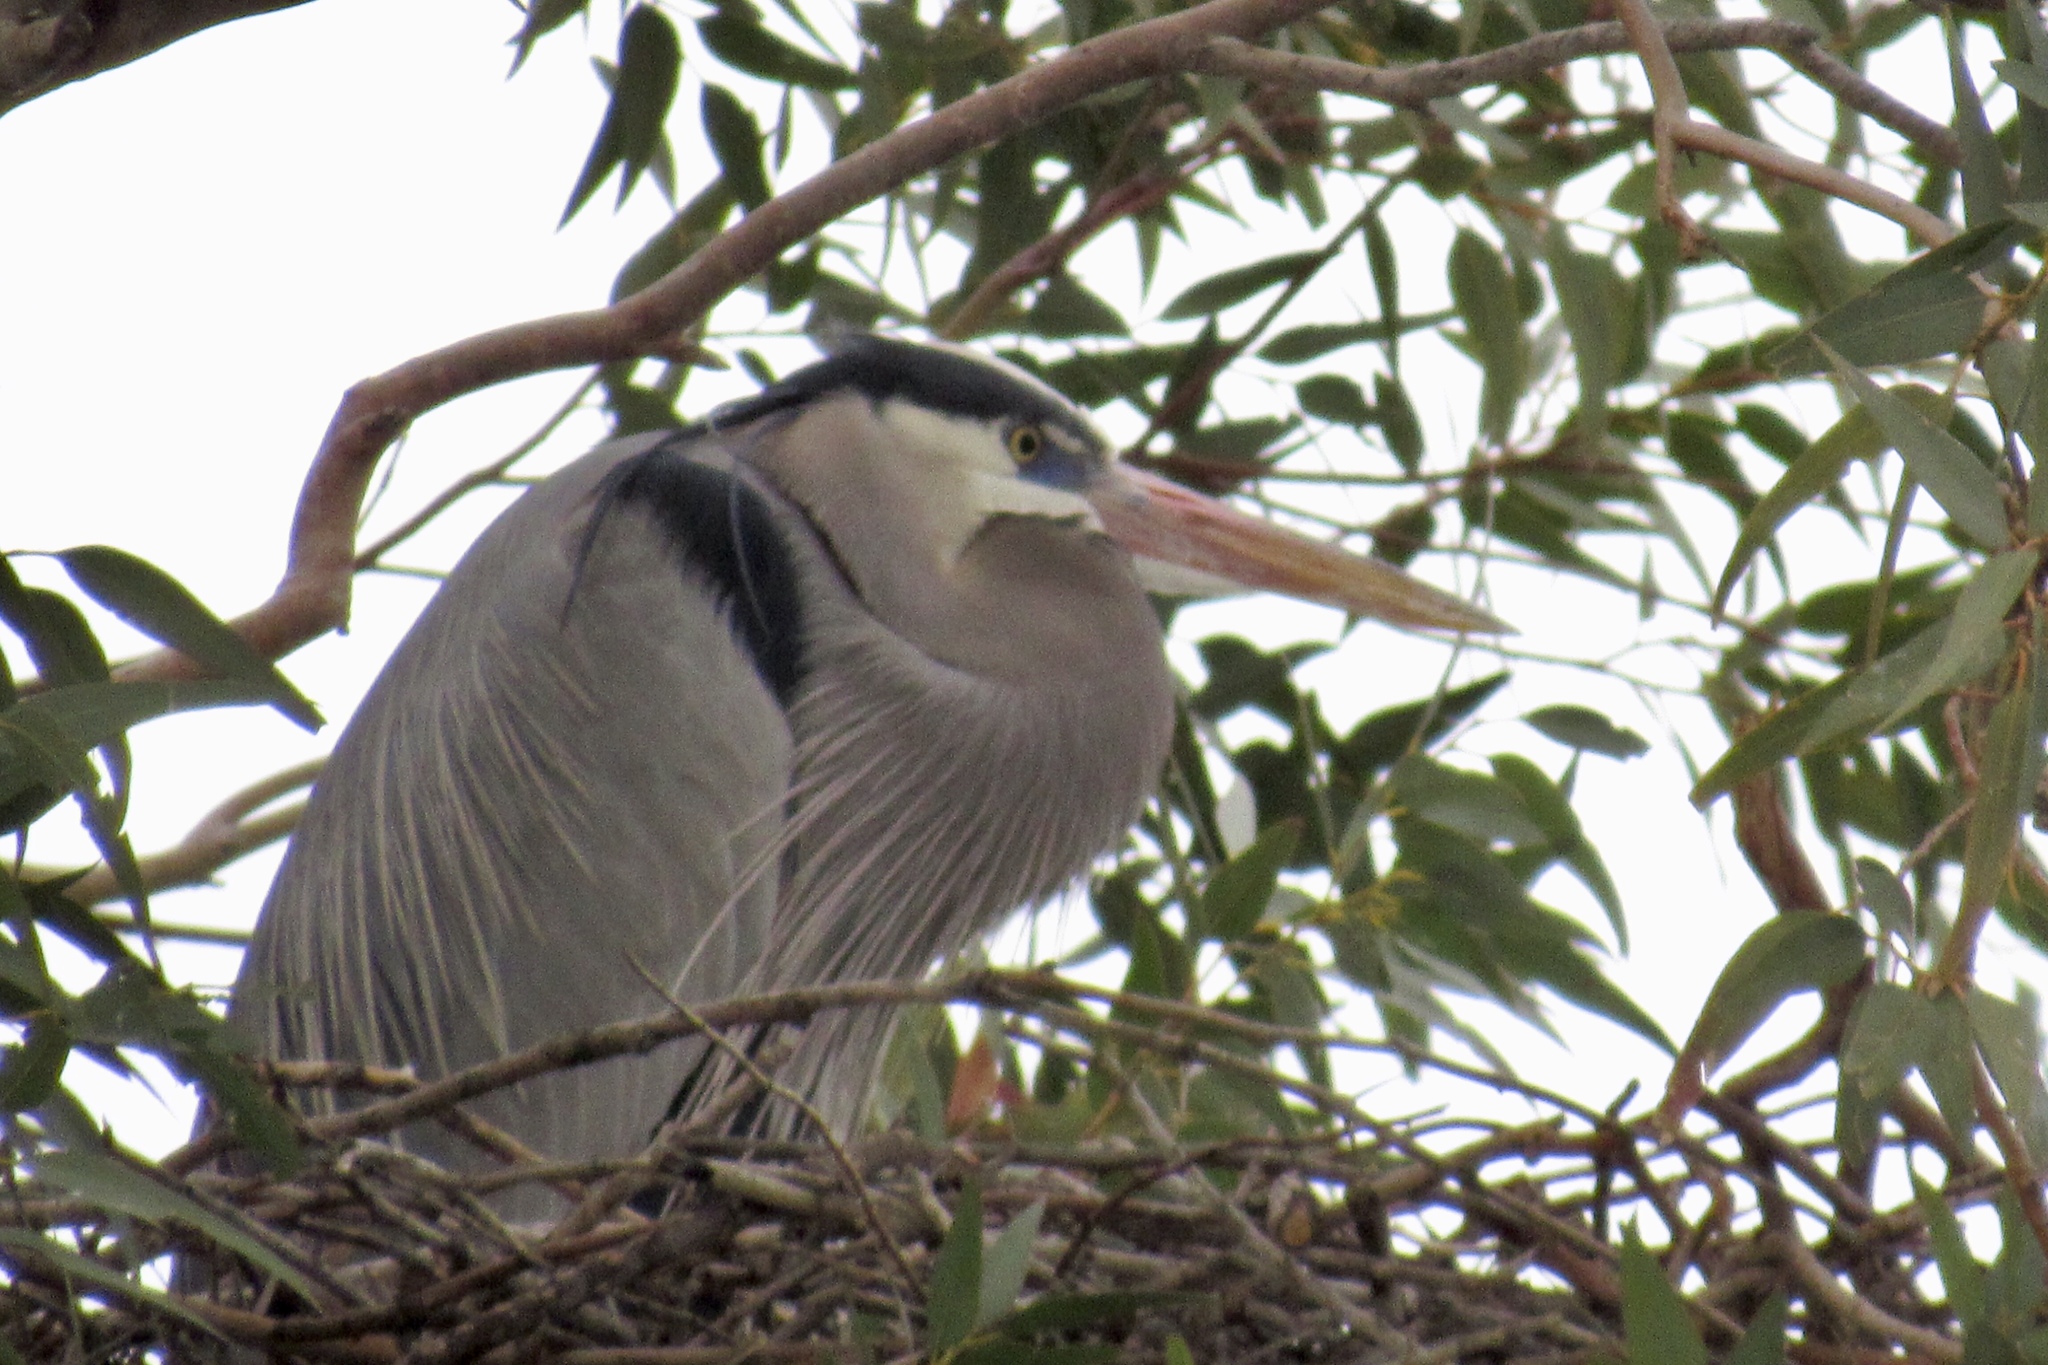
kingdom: Animalia
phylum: Chordata
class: Aves
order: Pelecaniformes
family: Ardeidae
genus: Ardea
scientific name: Ardea herodias
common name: Great blue heron
